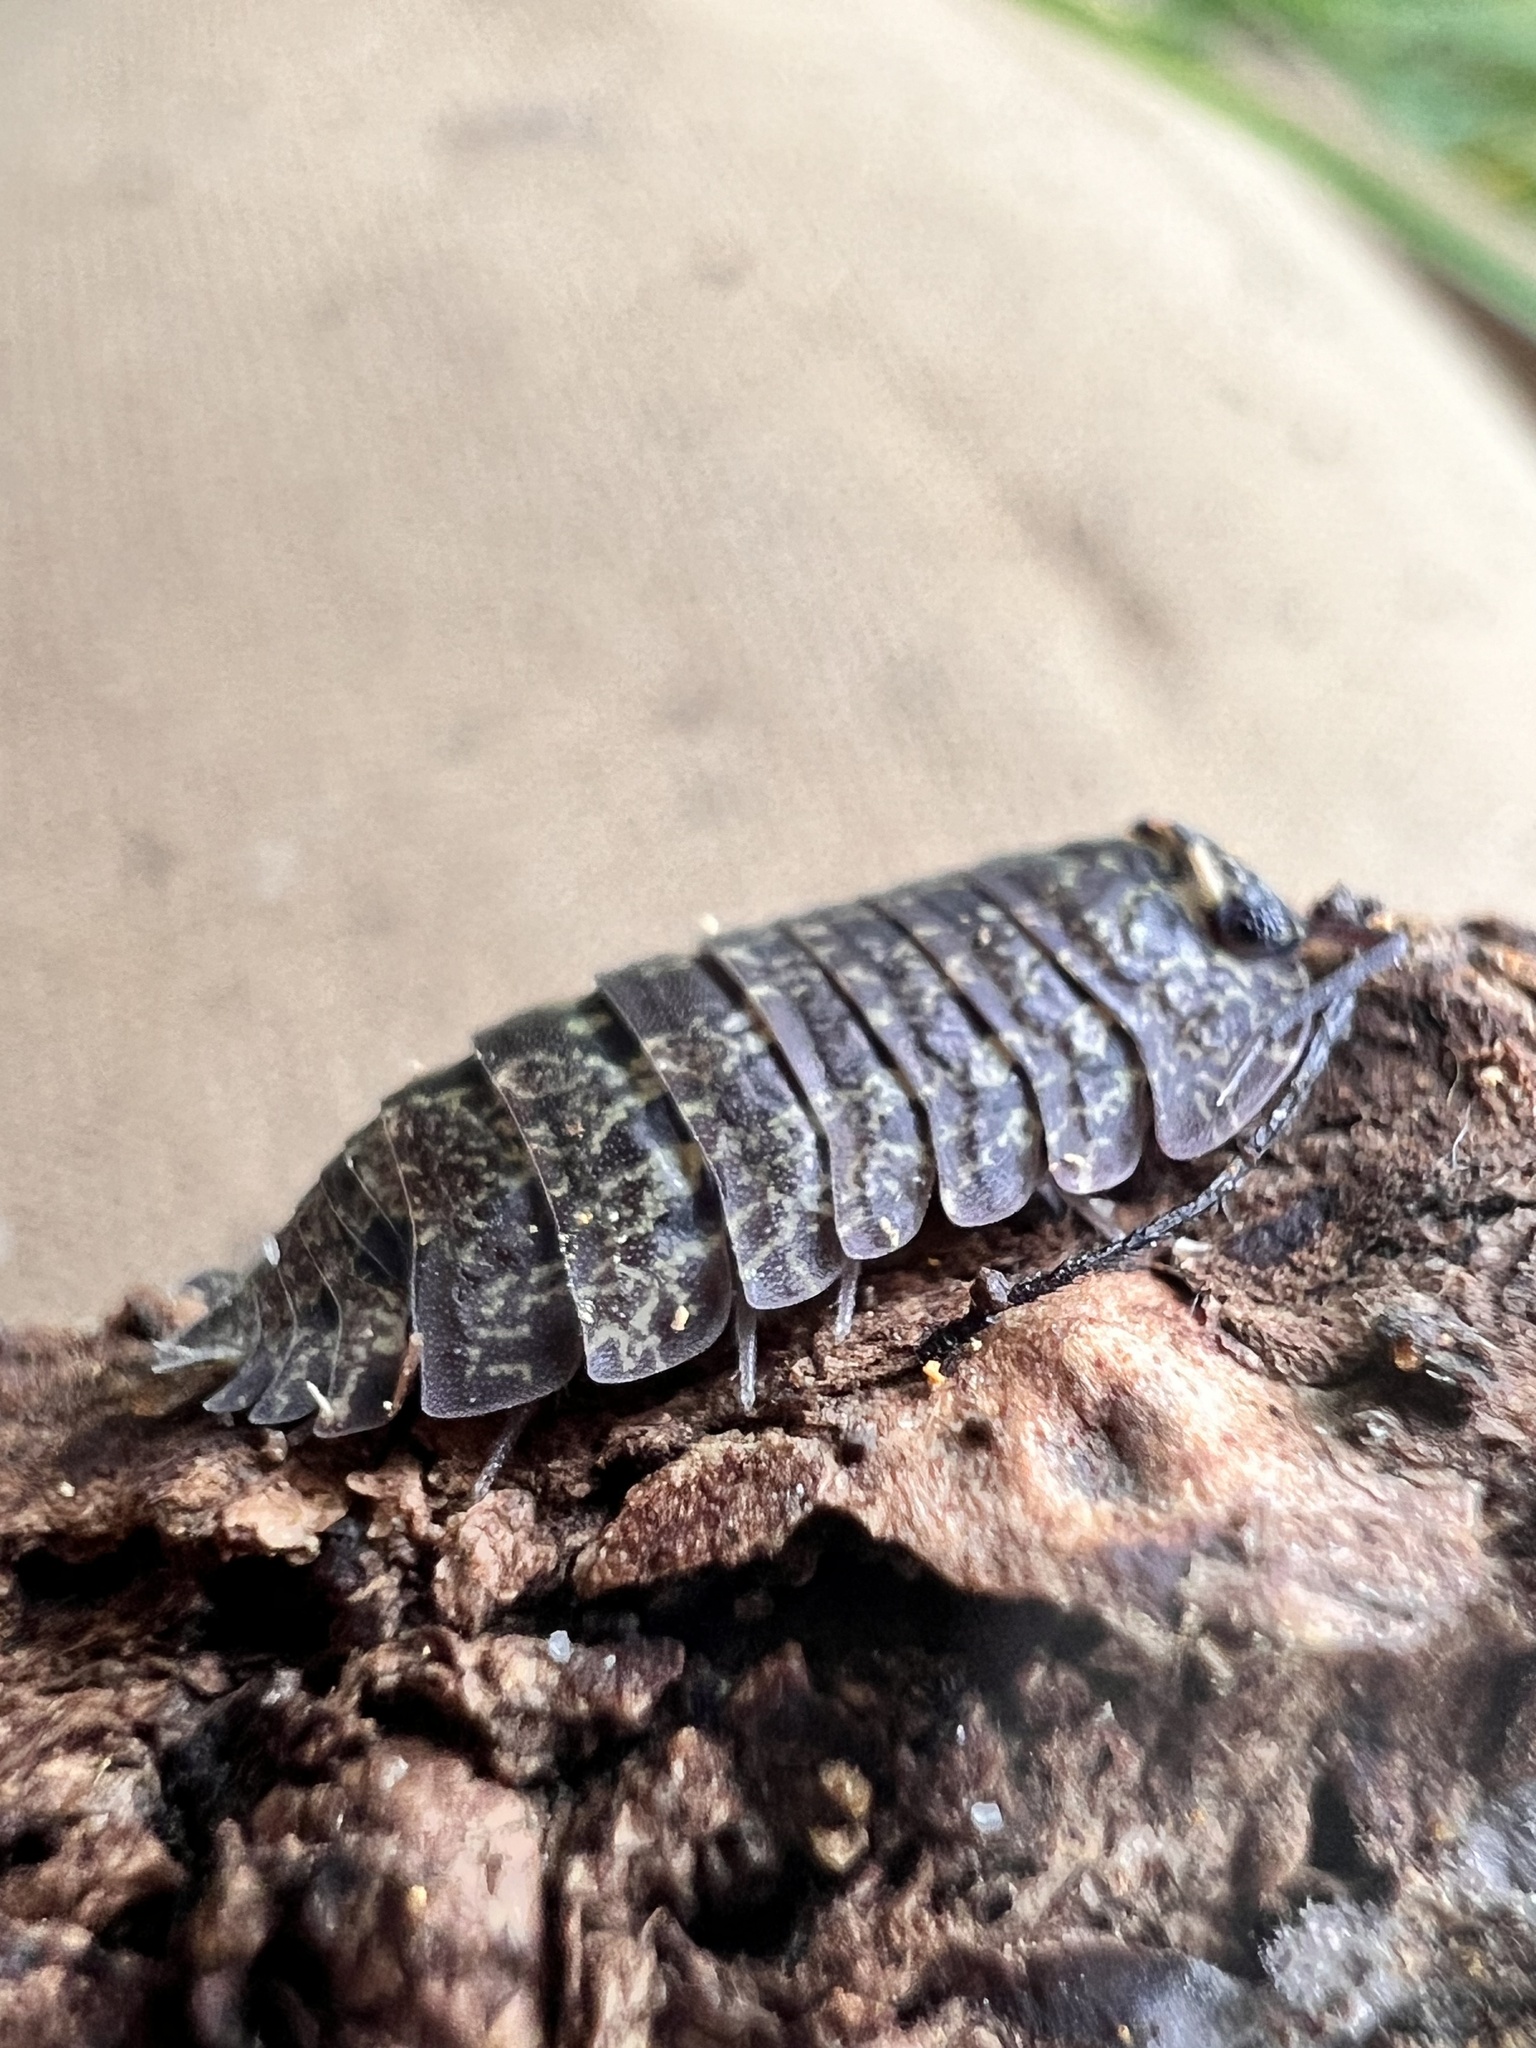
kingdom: Animalia
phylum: Arthropoda
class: Malacostraca
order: Isopoda
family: Armadillidae
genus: Cubaris
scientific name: Cubaris tarangensis
